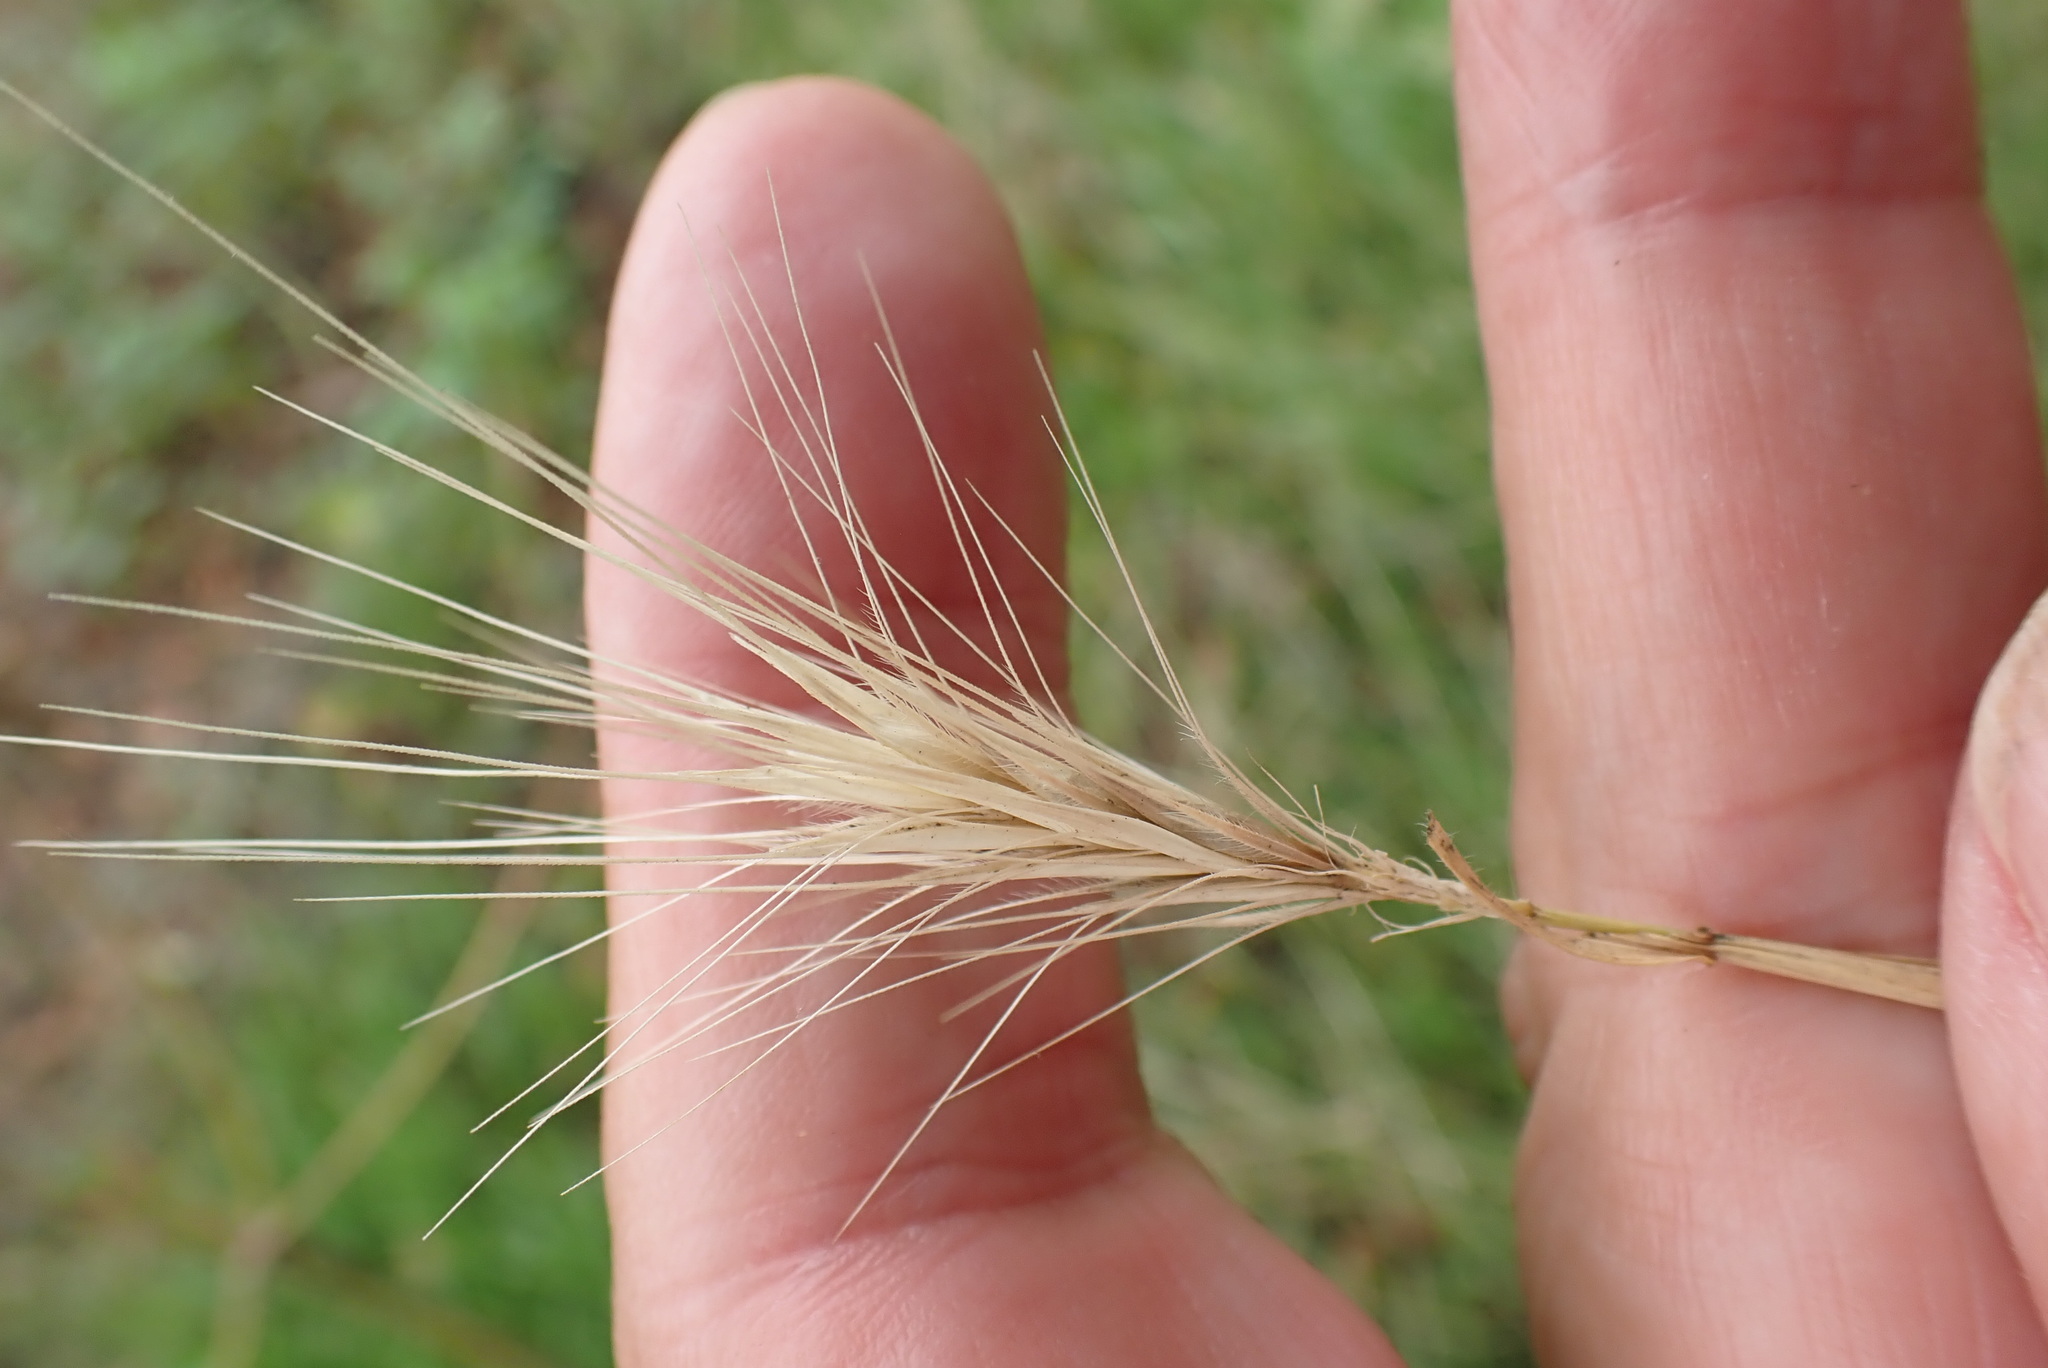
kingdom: Plantae
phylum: Tracheophyta
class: Liliopsida
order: Poales
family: Poaceae
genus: Hordeum
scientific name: Hordeum murinum
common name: Wall barley
